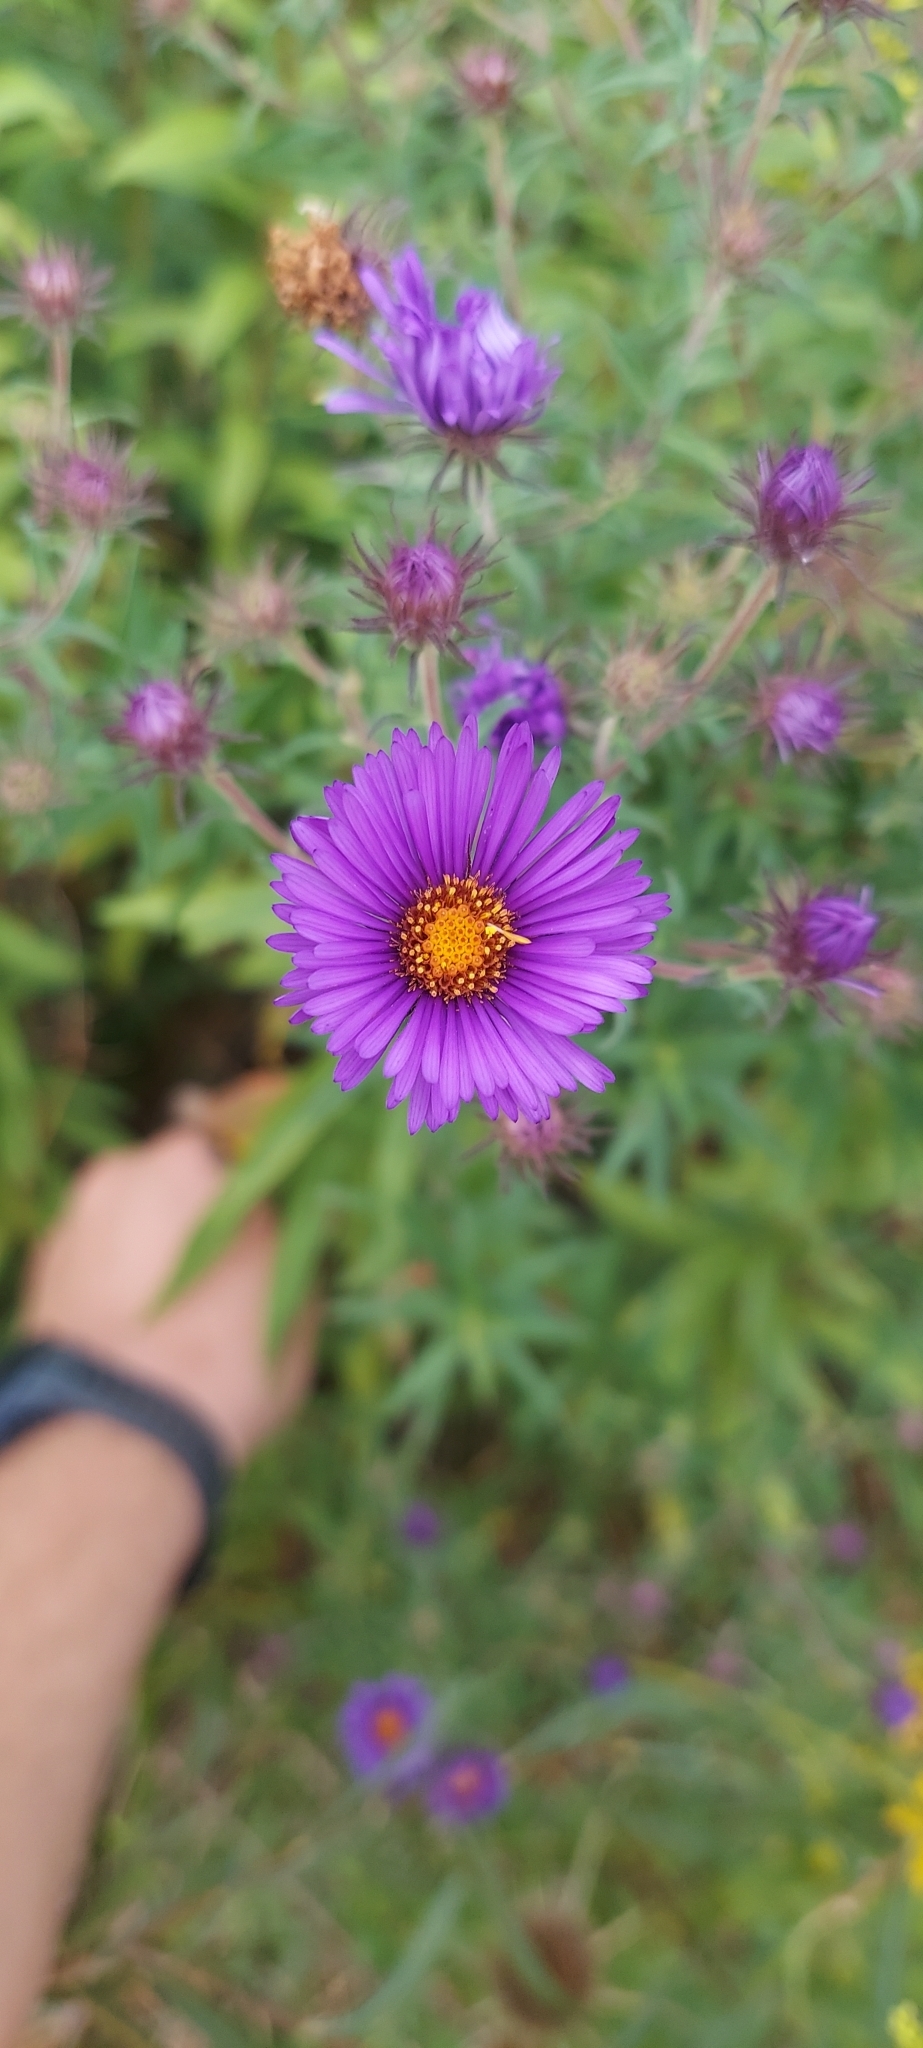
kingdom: Plantae
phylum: Tracheophyta
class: Magnoliopsida
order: Asterales
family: Asteraceae
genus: Symphyotrichum
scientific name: Symphyotrichum novae-angliae
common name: Michaelmas daisy
